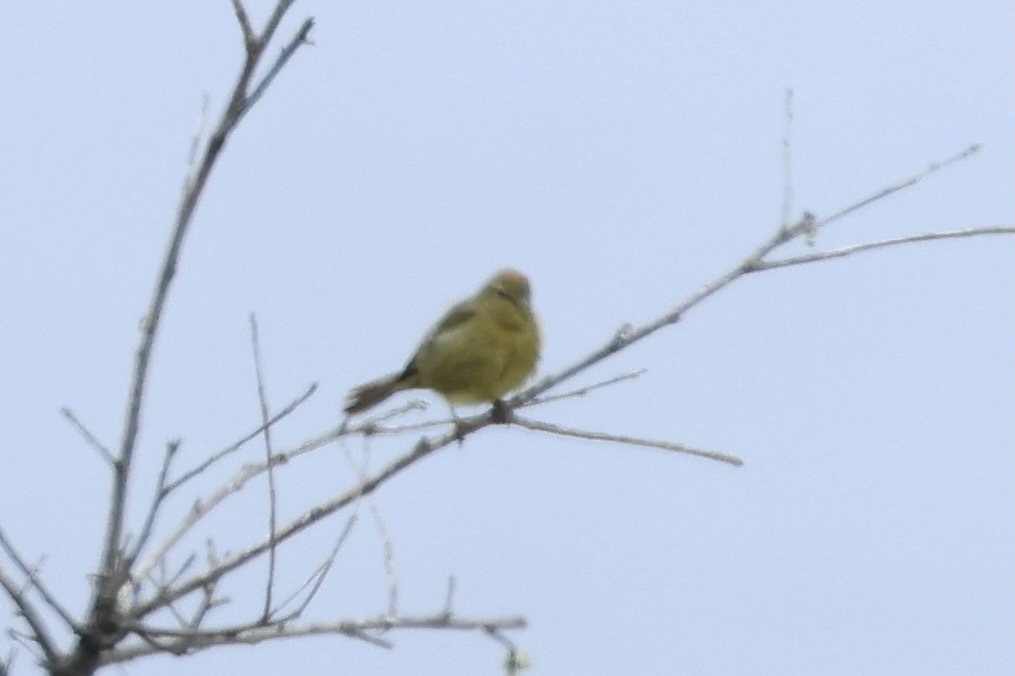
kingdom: Animalia
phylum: Chordata
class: Aves
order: Passeriformes
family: Parulidae
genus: Leiothlypis
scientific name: Leiothlypis celata
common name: Orange-crowned warbler
